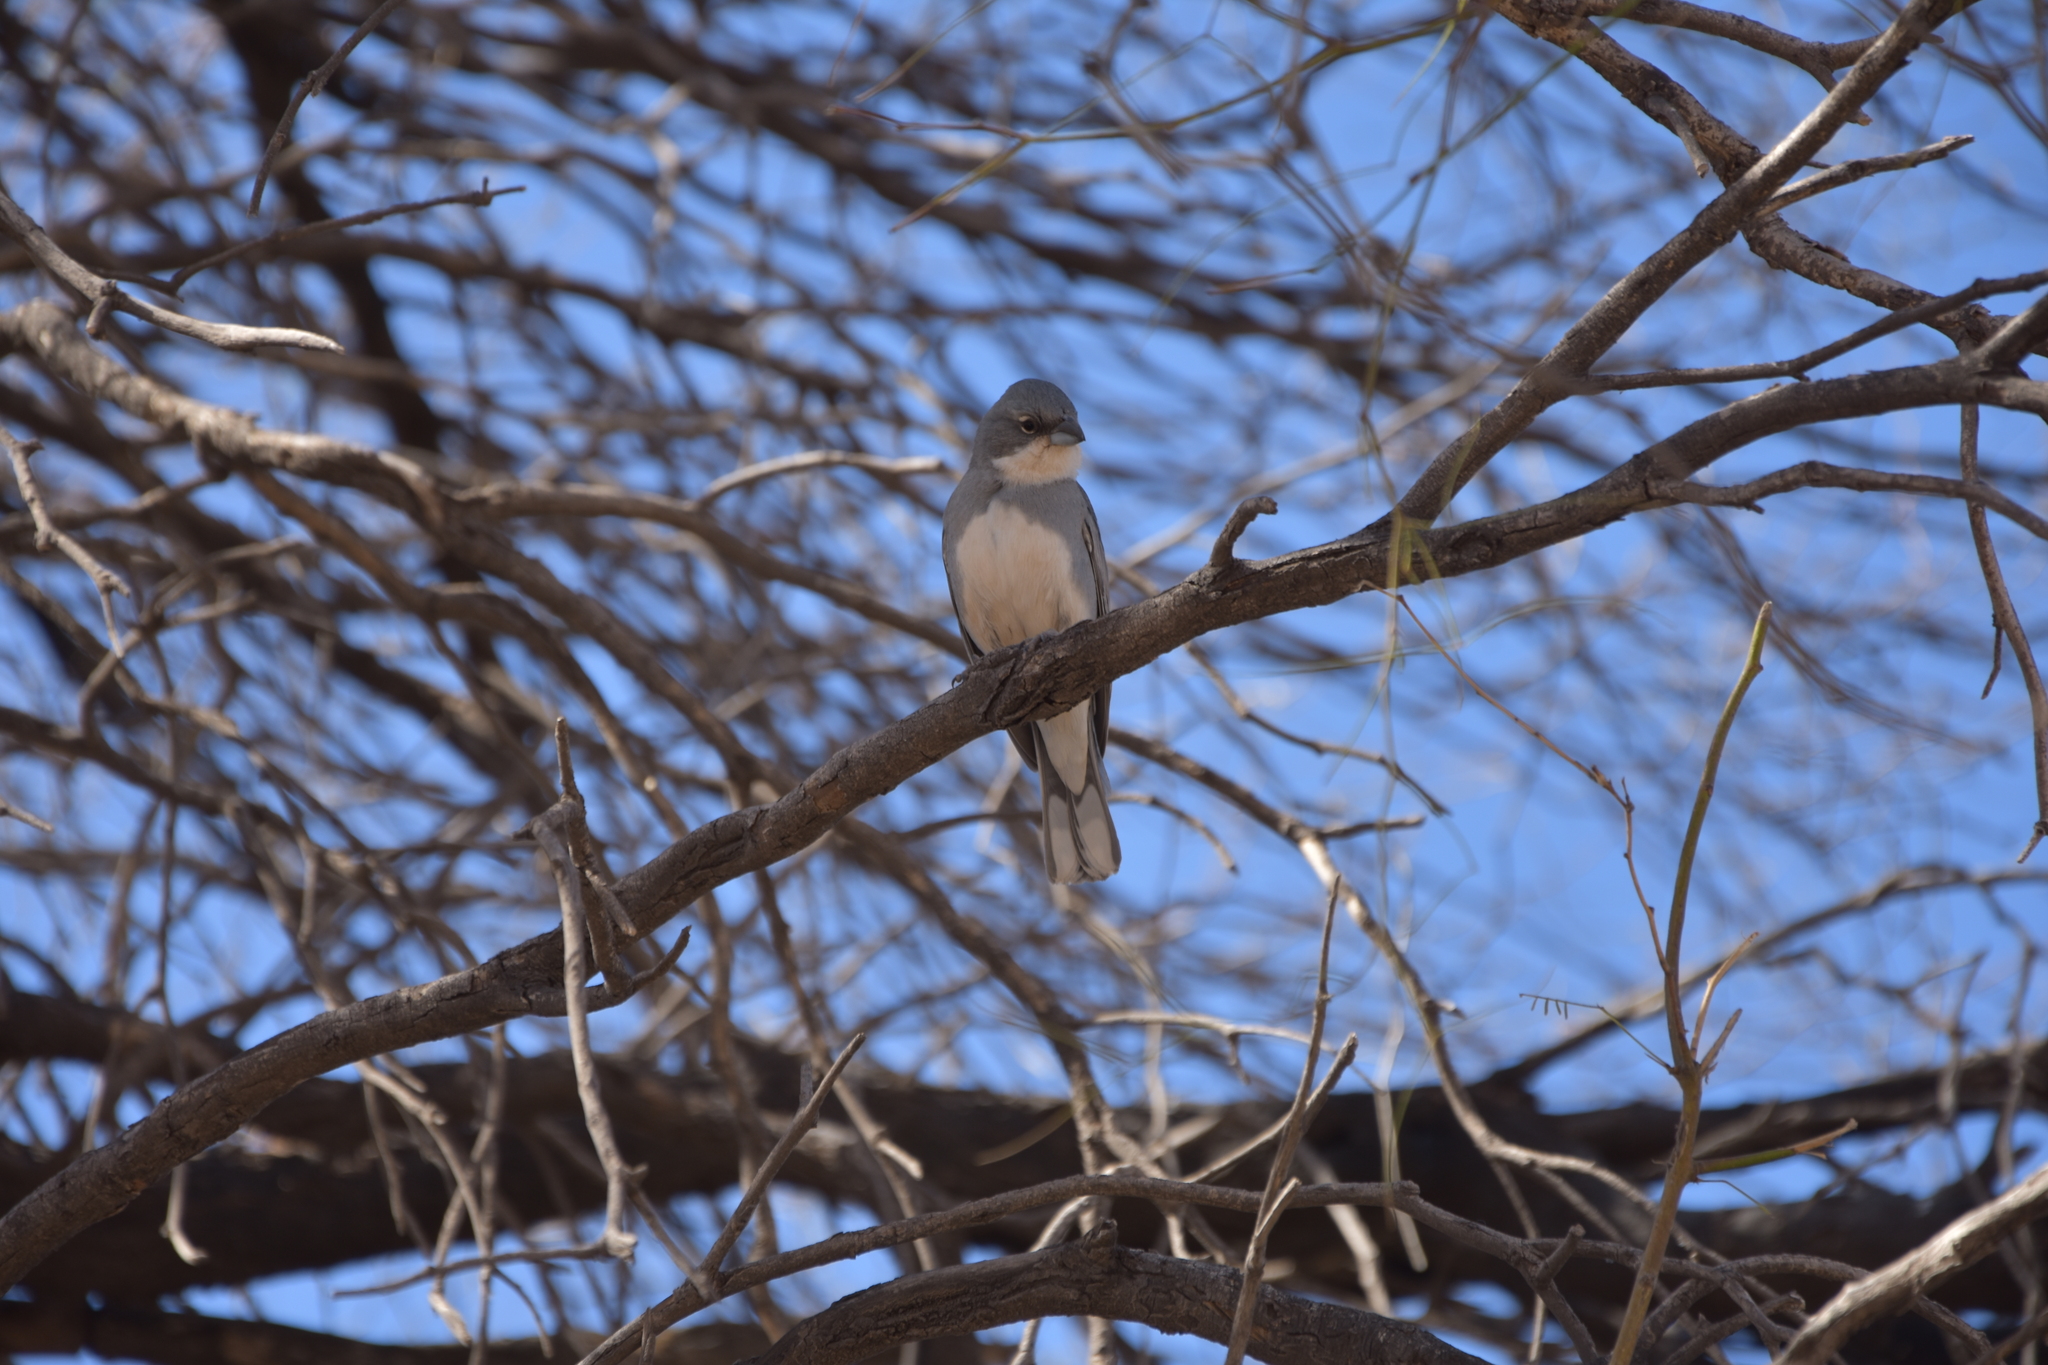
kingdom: Animalia
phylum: Chordata
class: Aves
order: Passeriformes
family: Thraupidae
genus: Diuca
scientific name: Diuca diuca
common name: Common diuca finch
